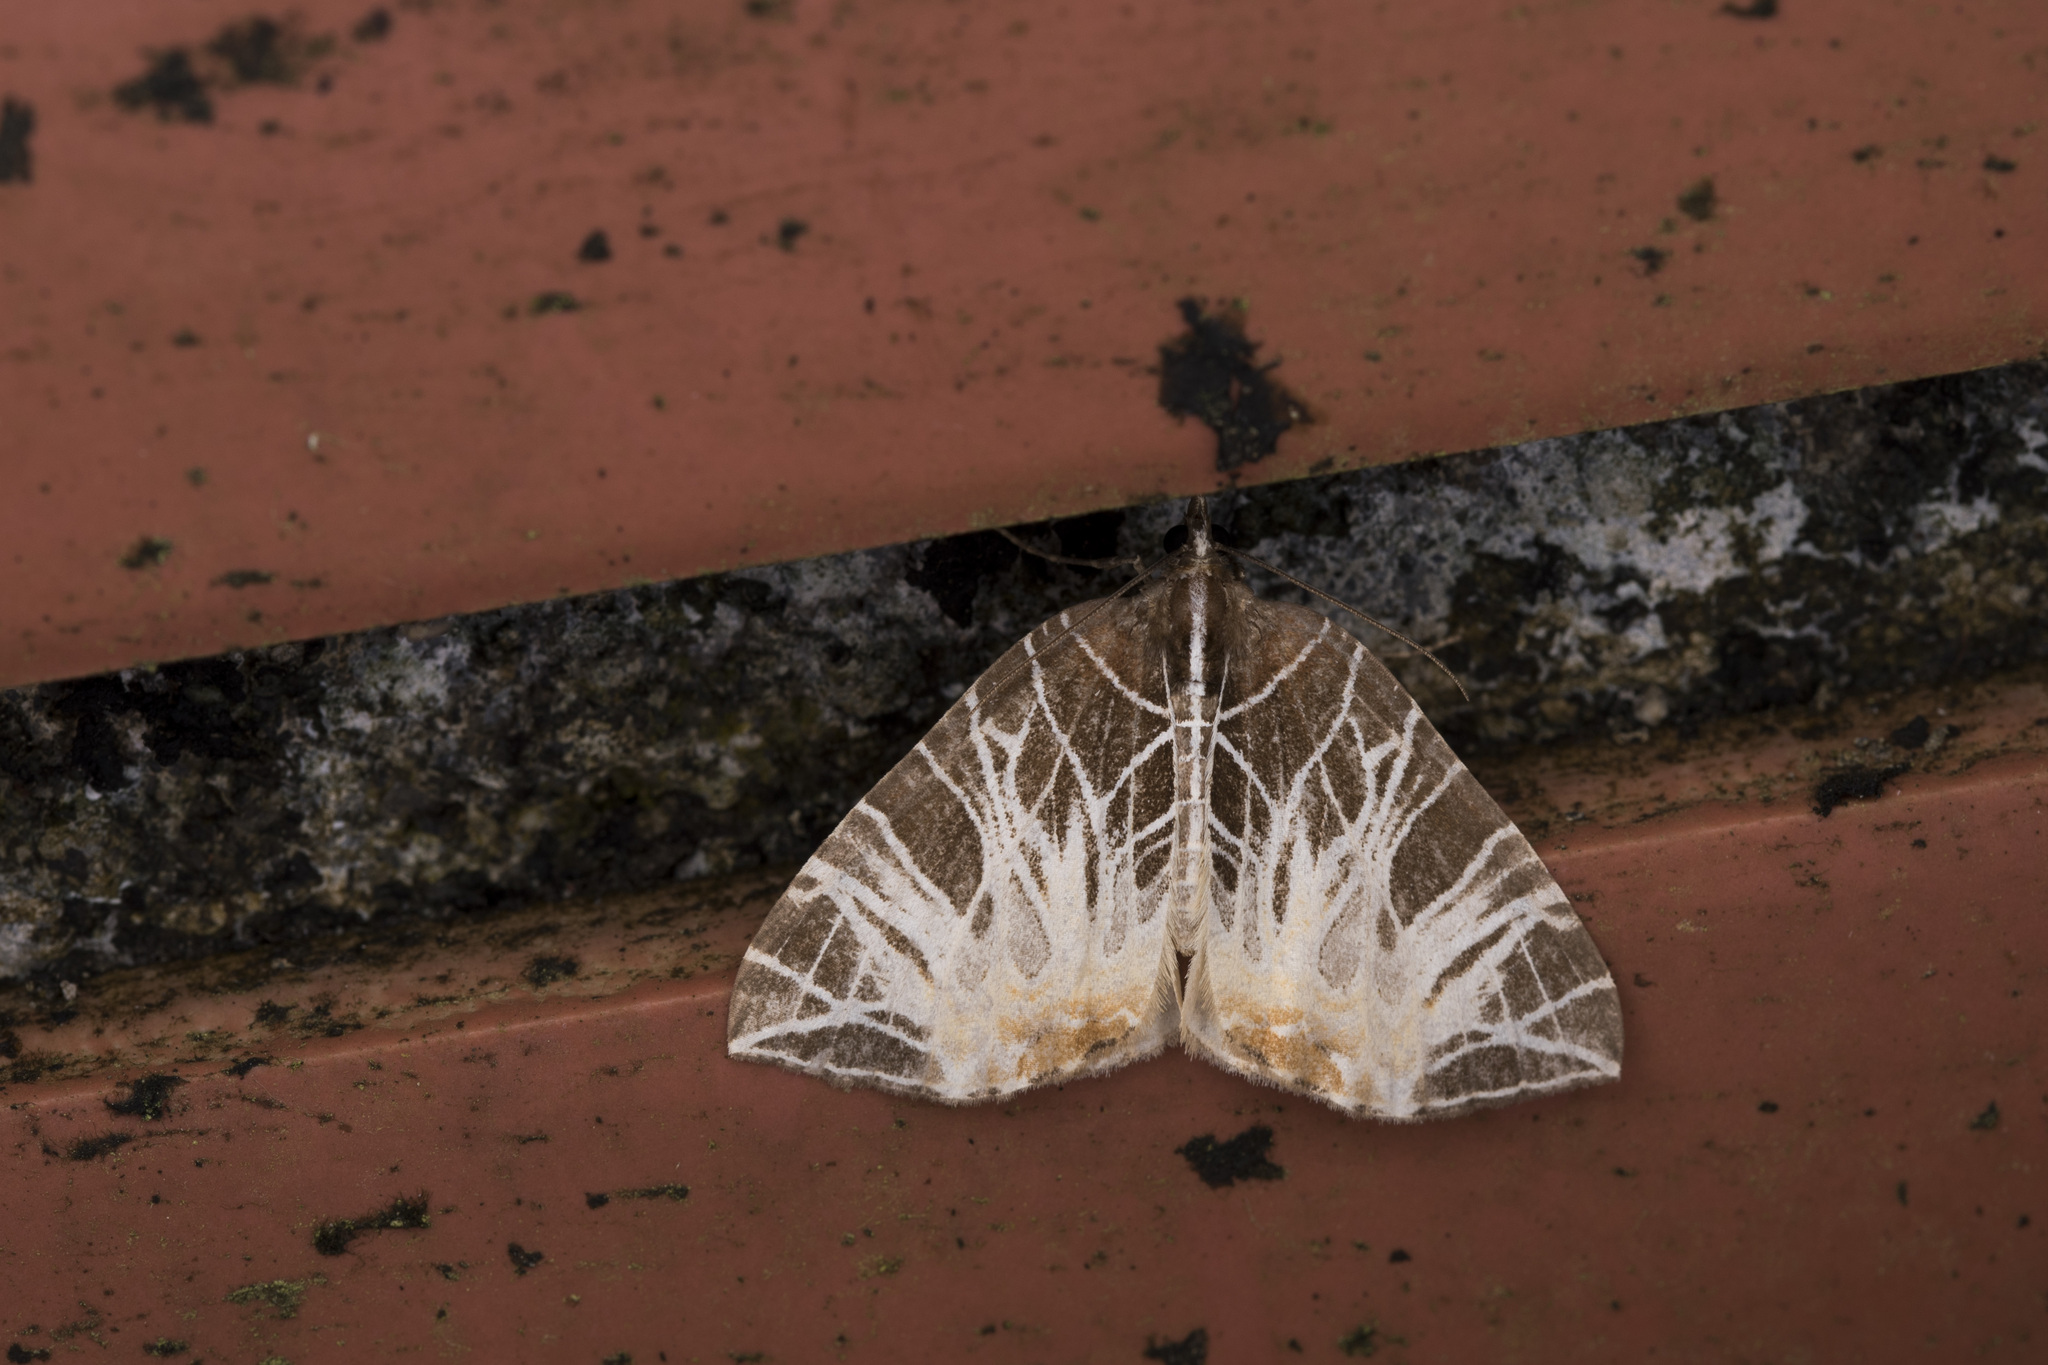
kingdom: Animalia
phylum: Arthropoda
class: Insecta
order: Lepidoptera
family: Geometridae
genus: Evecliptopera
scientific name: Evecliptopera illitata
